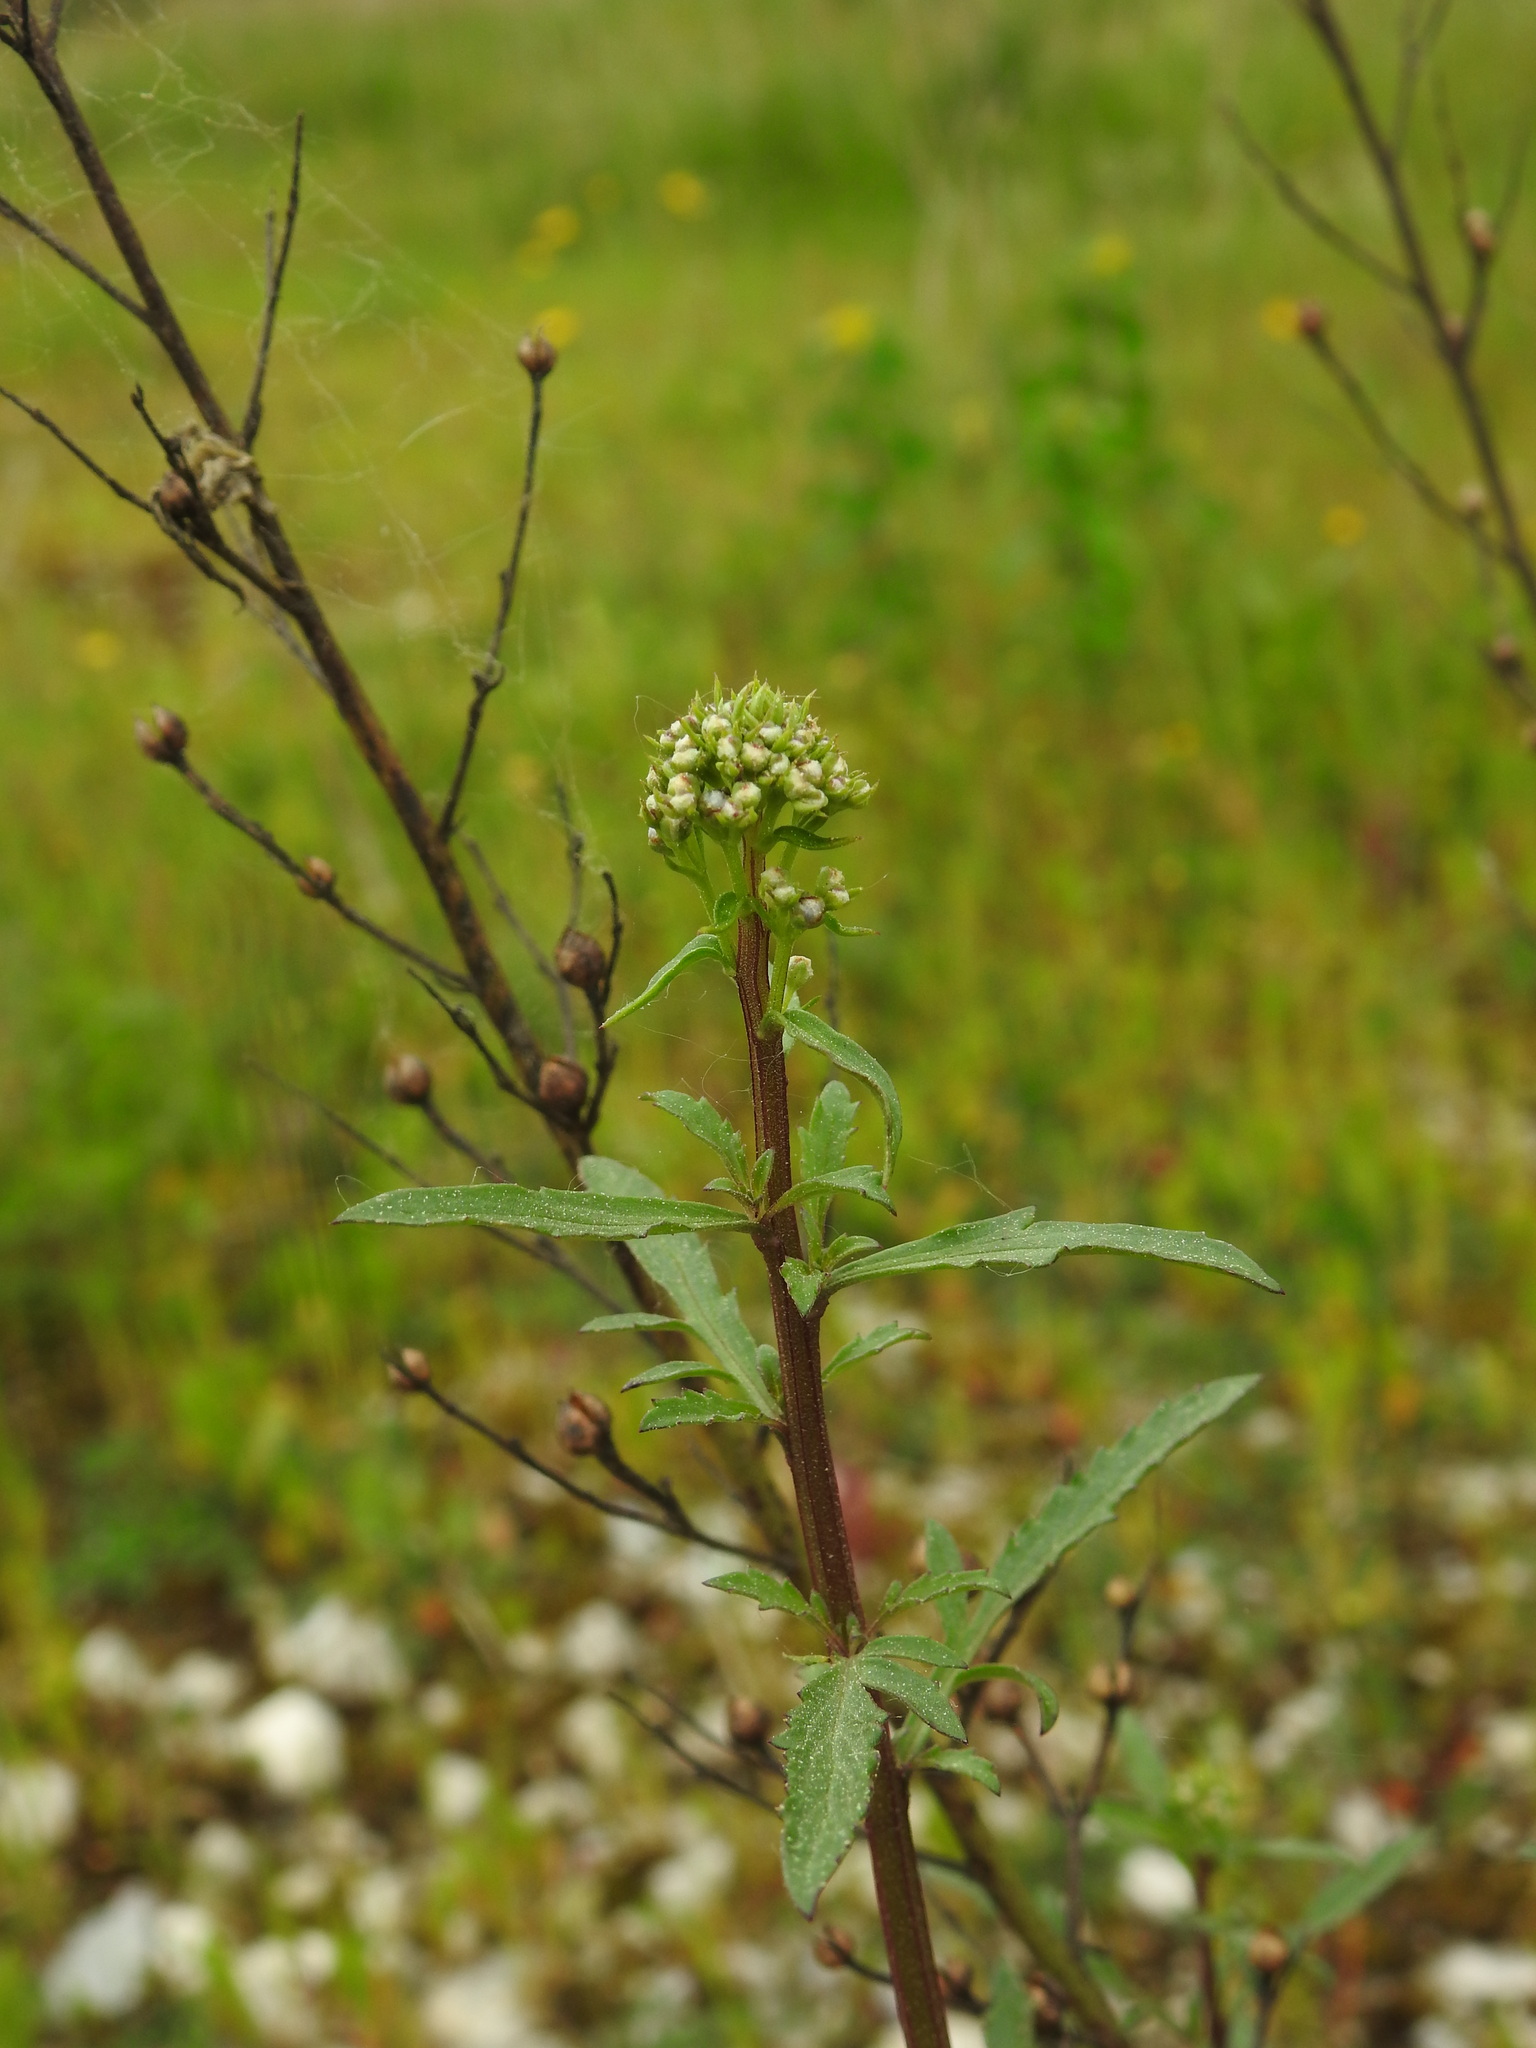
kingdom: Plantae
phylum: Tracheophyta
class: Magnoliopsida
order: Lamiales
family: Scrophulariaceae
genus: Scrophularia
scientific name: Scrophularia canina
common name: French figwort
